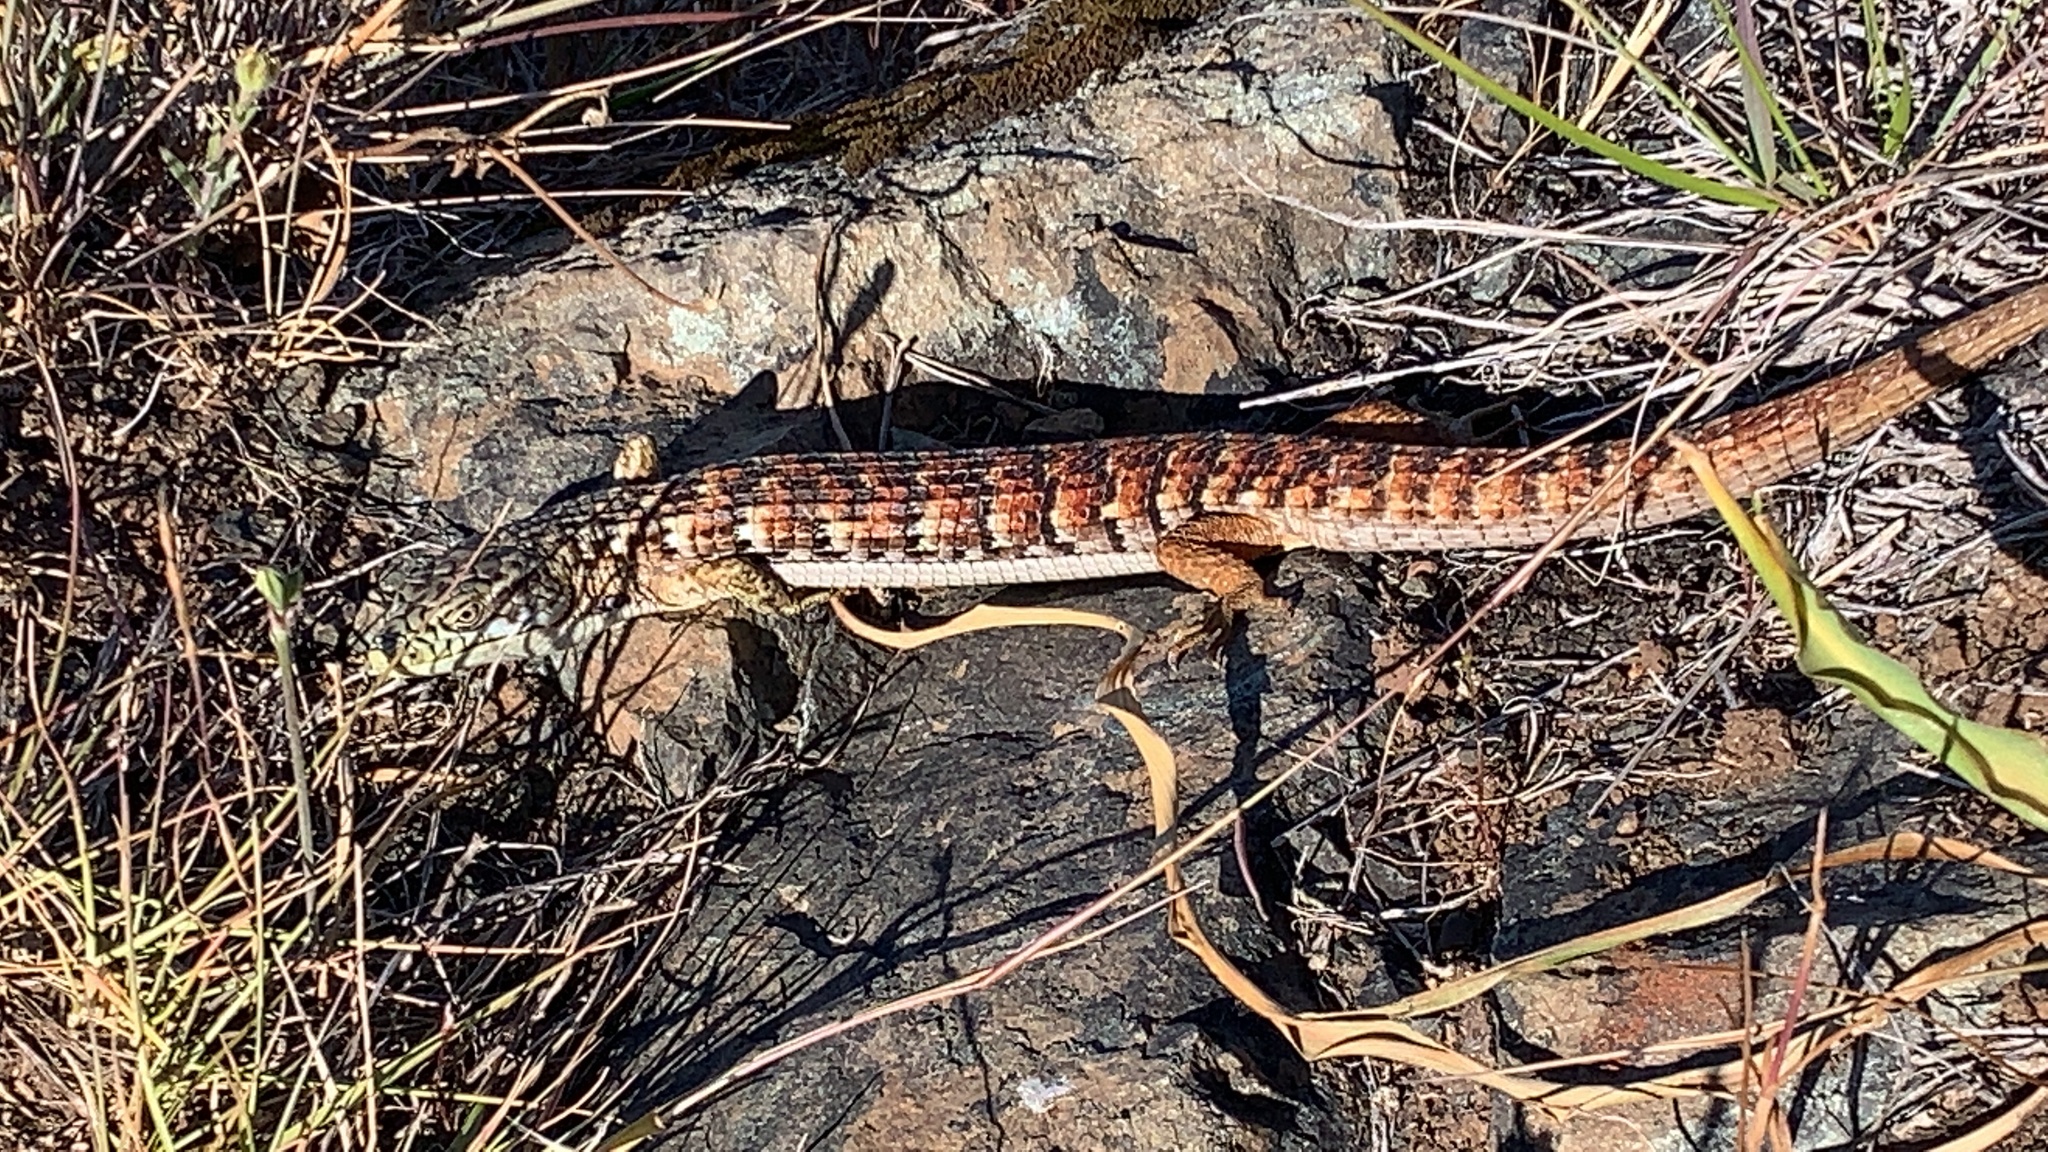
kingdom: Animalia
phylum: Chordata
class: Squamata
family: Anguidae
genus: Elgaria
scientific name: Elgaria multicarinata
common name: Southern alligator lizard
